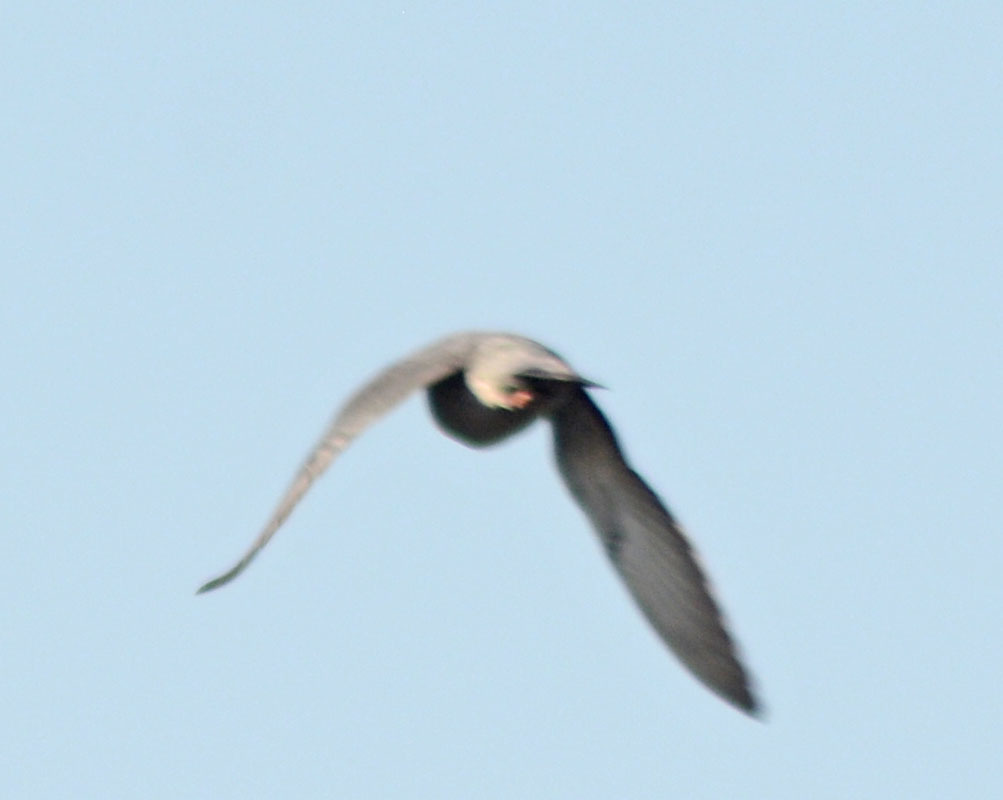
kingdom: Animalia
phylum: Chordata
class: Aves
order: Columbiformes
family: Columbidae
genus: Columba
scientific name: Columba livia
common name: Rock pigeon
